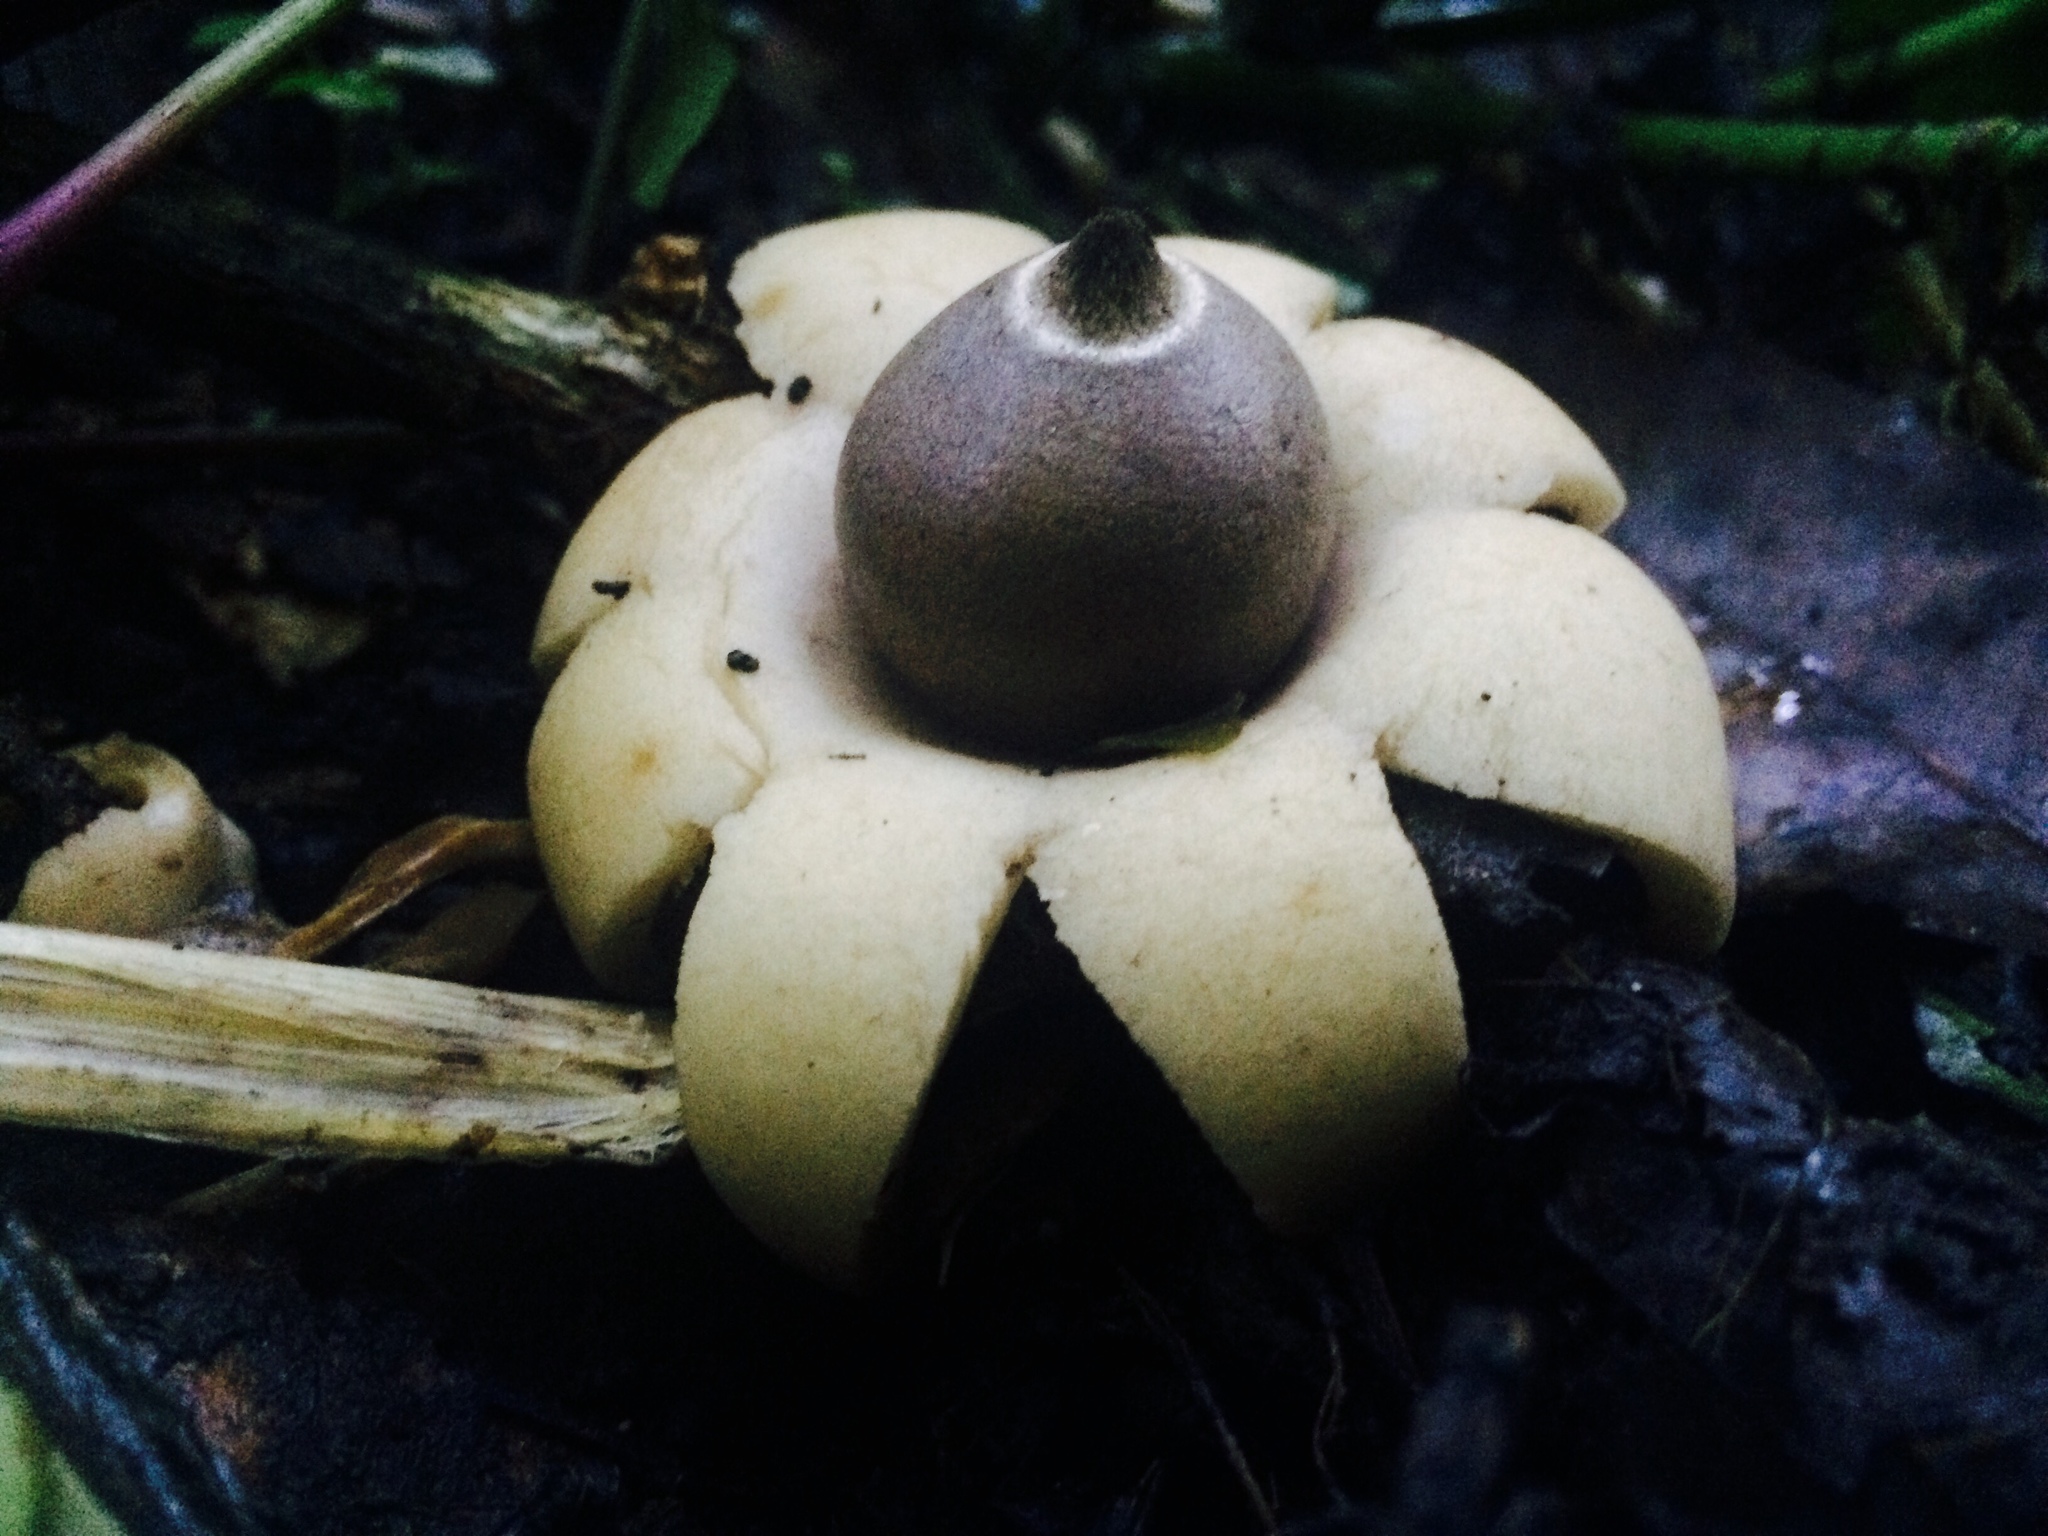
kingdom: Fungi
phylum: Basidiomycota
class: Agaricomycetes
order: Geastrales
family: Geastraceae
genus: Geastrum
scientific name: Geastrum saccatum
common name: Rounded earthstar
